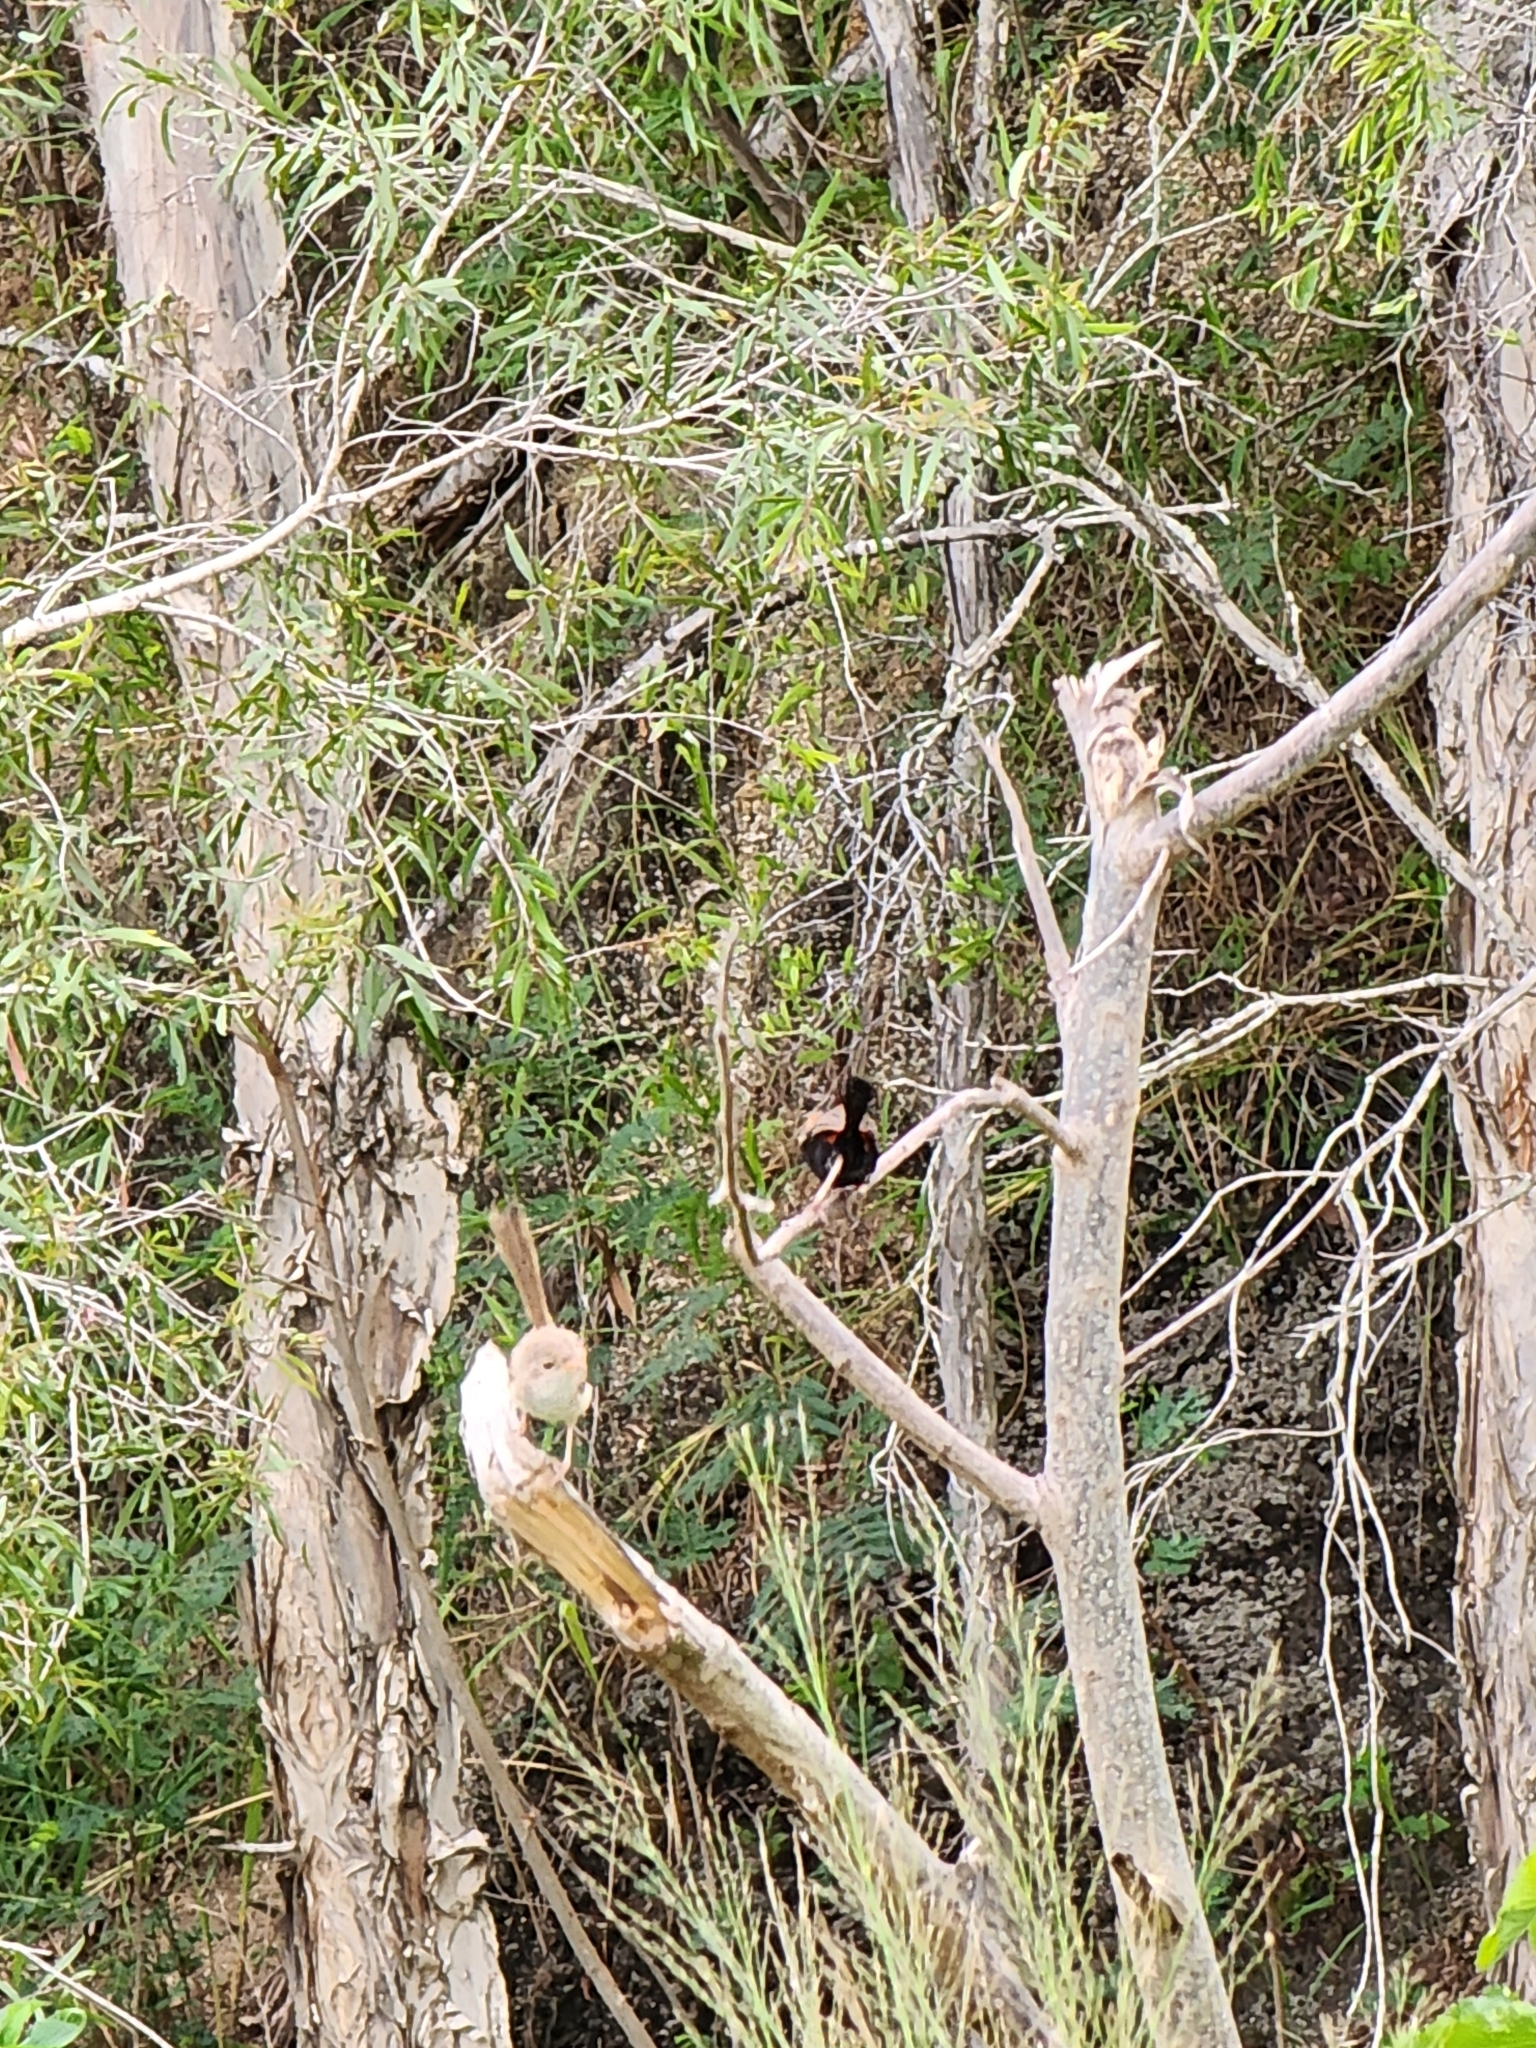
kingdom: Animalia
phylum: Chordata
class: Aves
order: Passeriformes
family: Maluridae
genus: Malurus
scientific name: Malurus melanocephalus
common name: Red-backed fairywren
